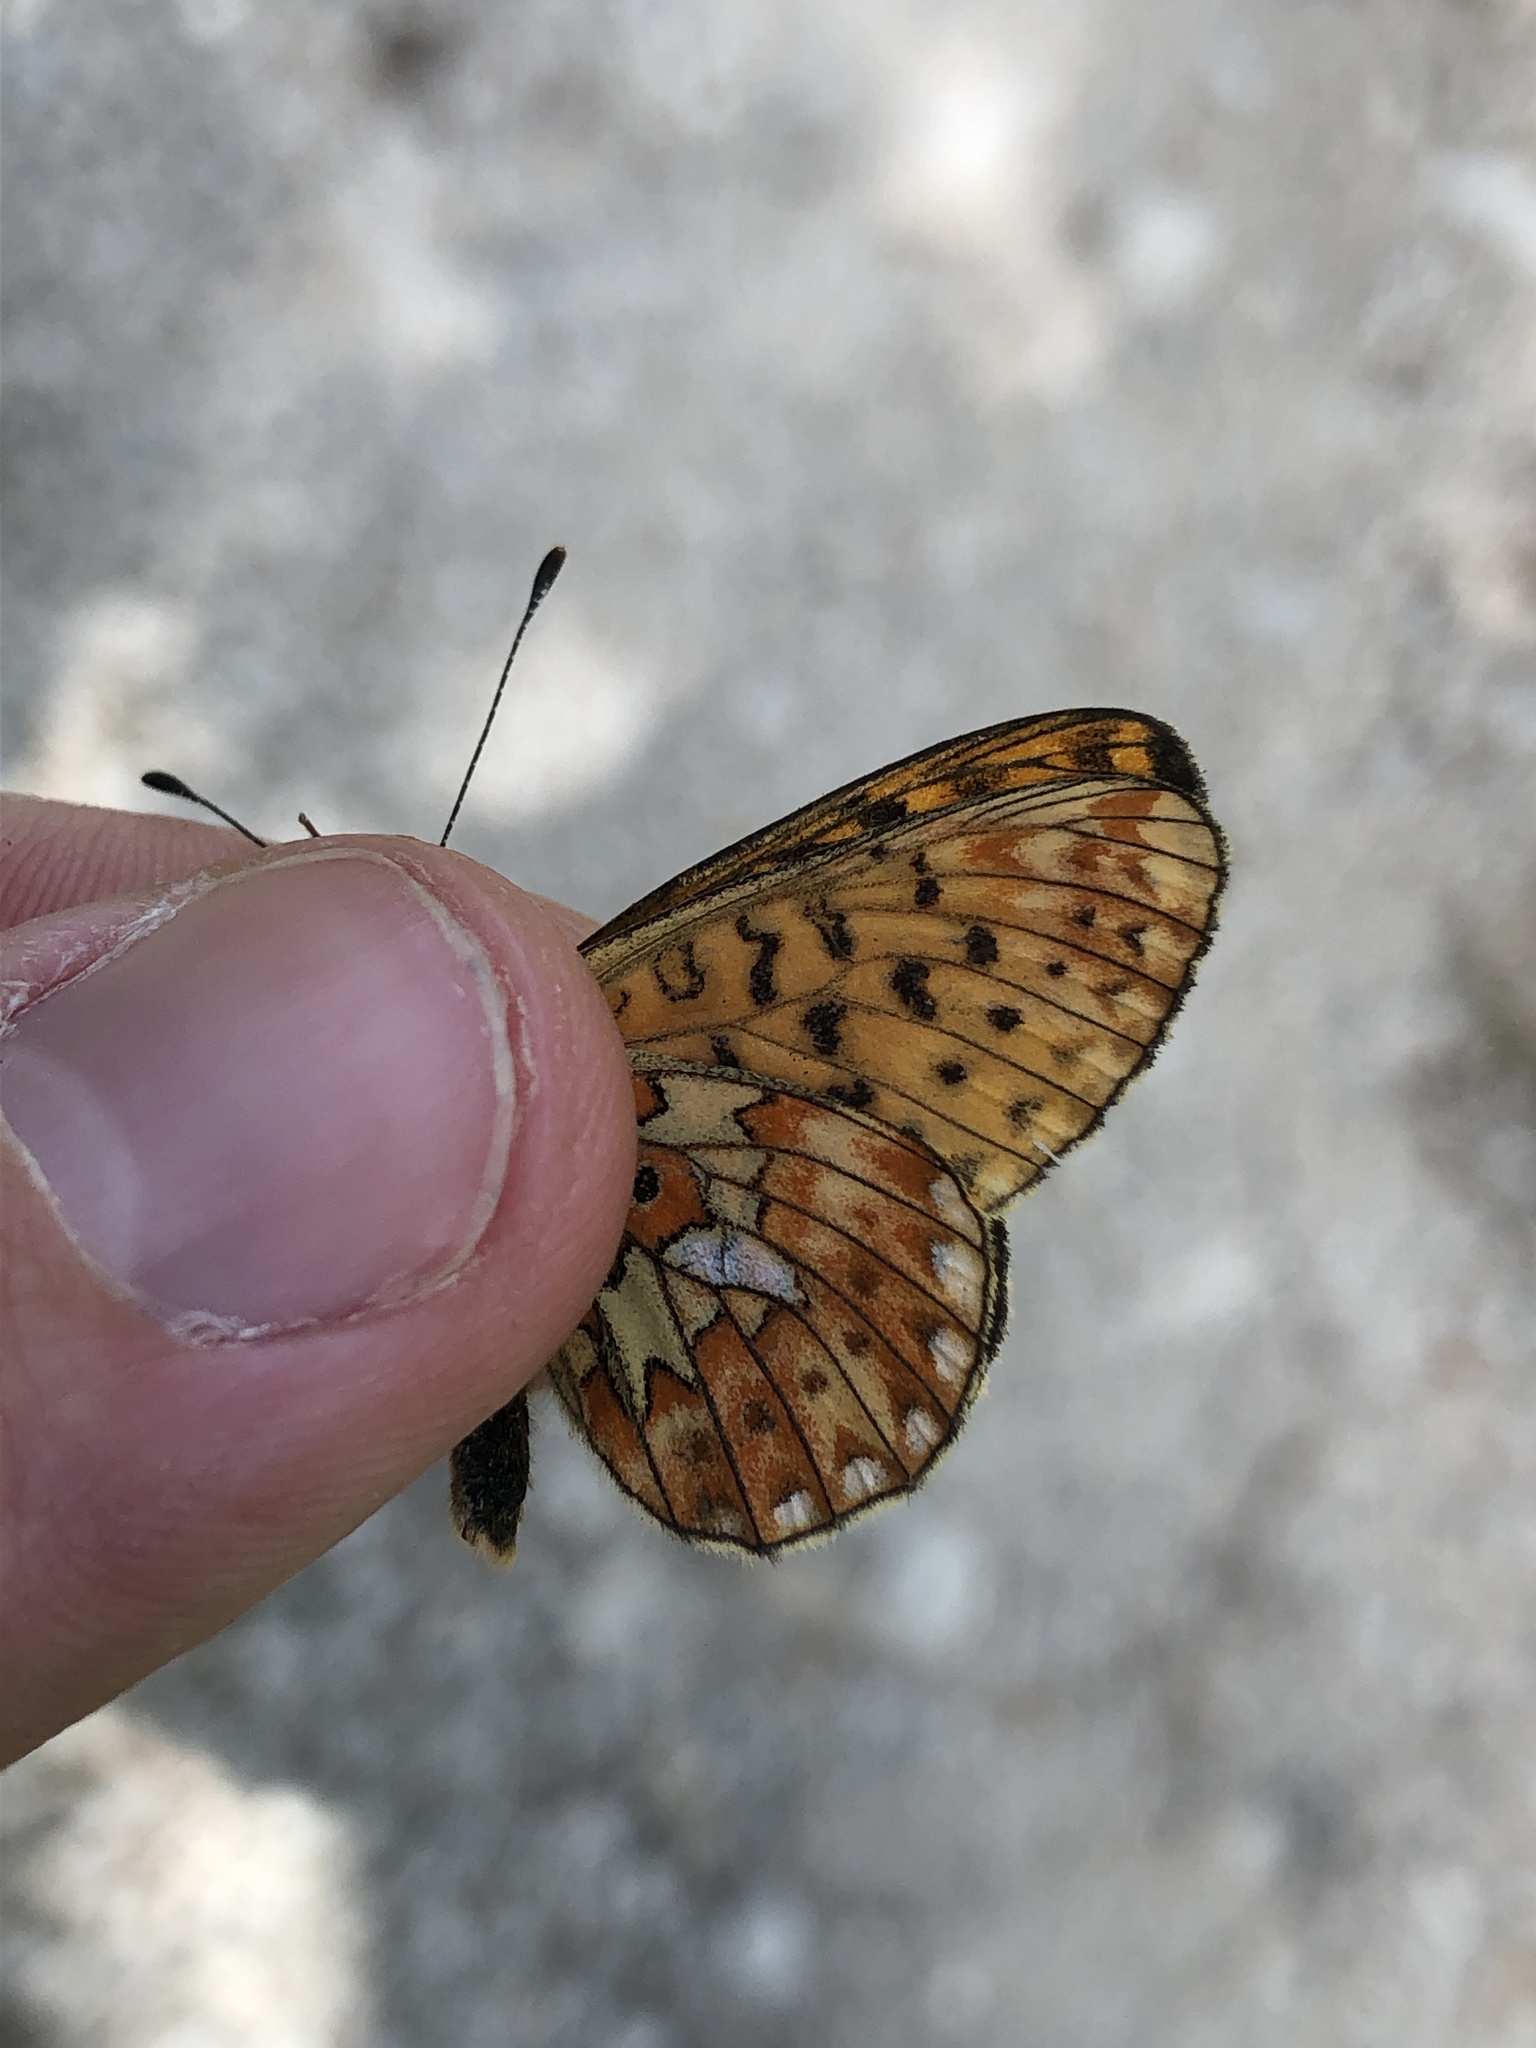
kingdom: Animalia
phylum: Arthropoda
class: Insecta
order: Lepidoptera
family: Nymphalidae
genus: Clossiana
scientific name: Clossiana euphrosyne
